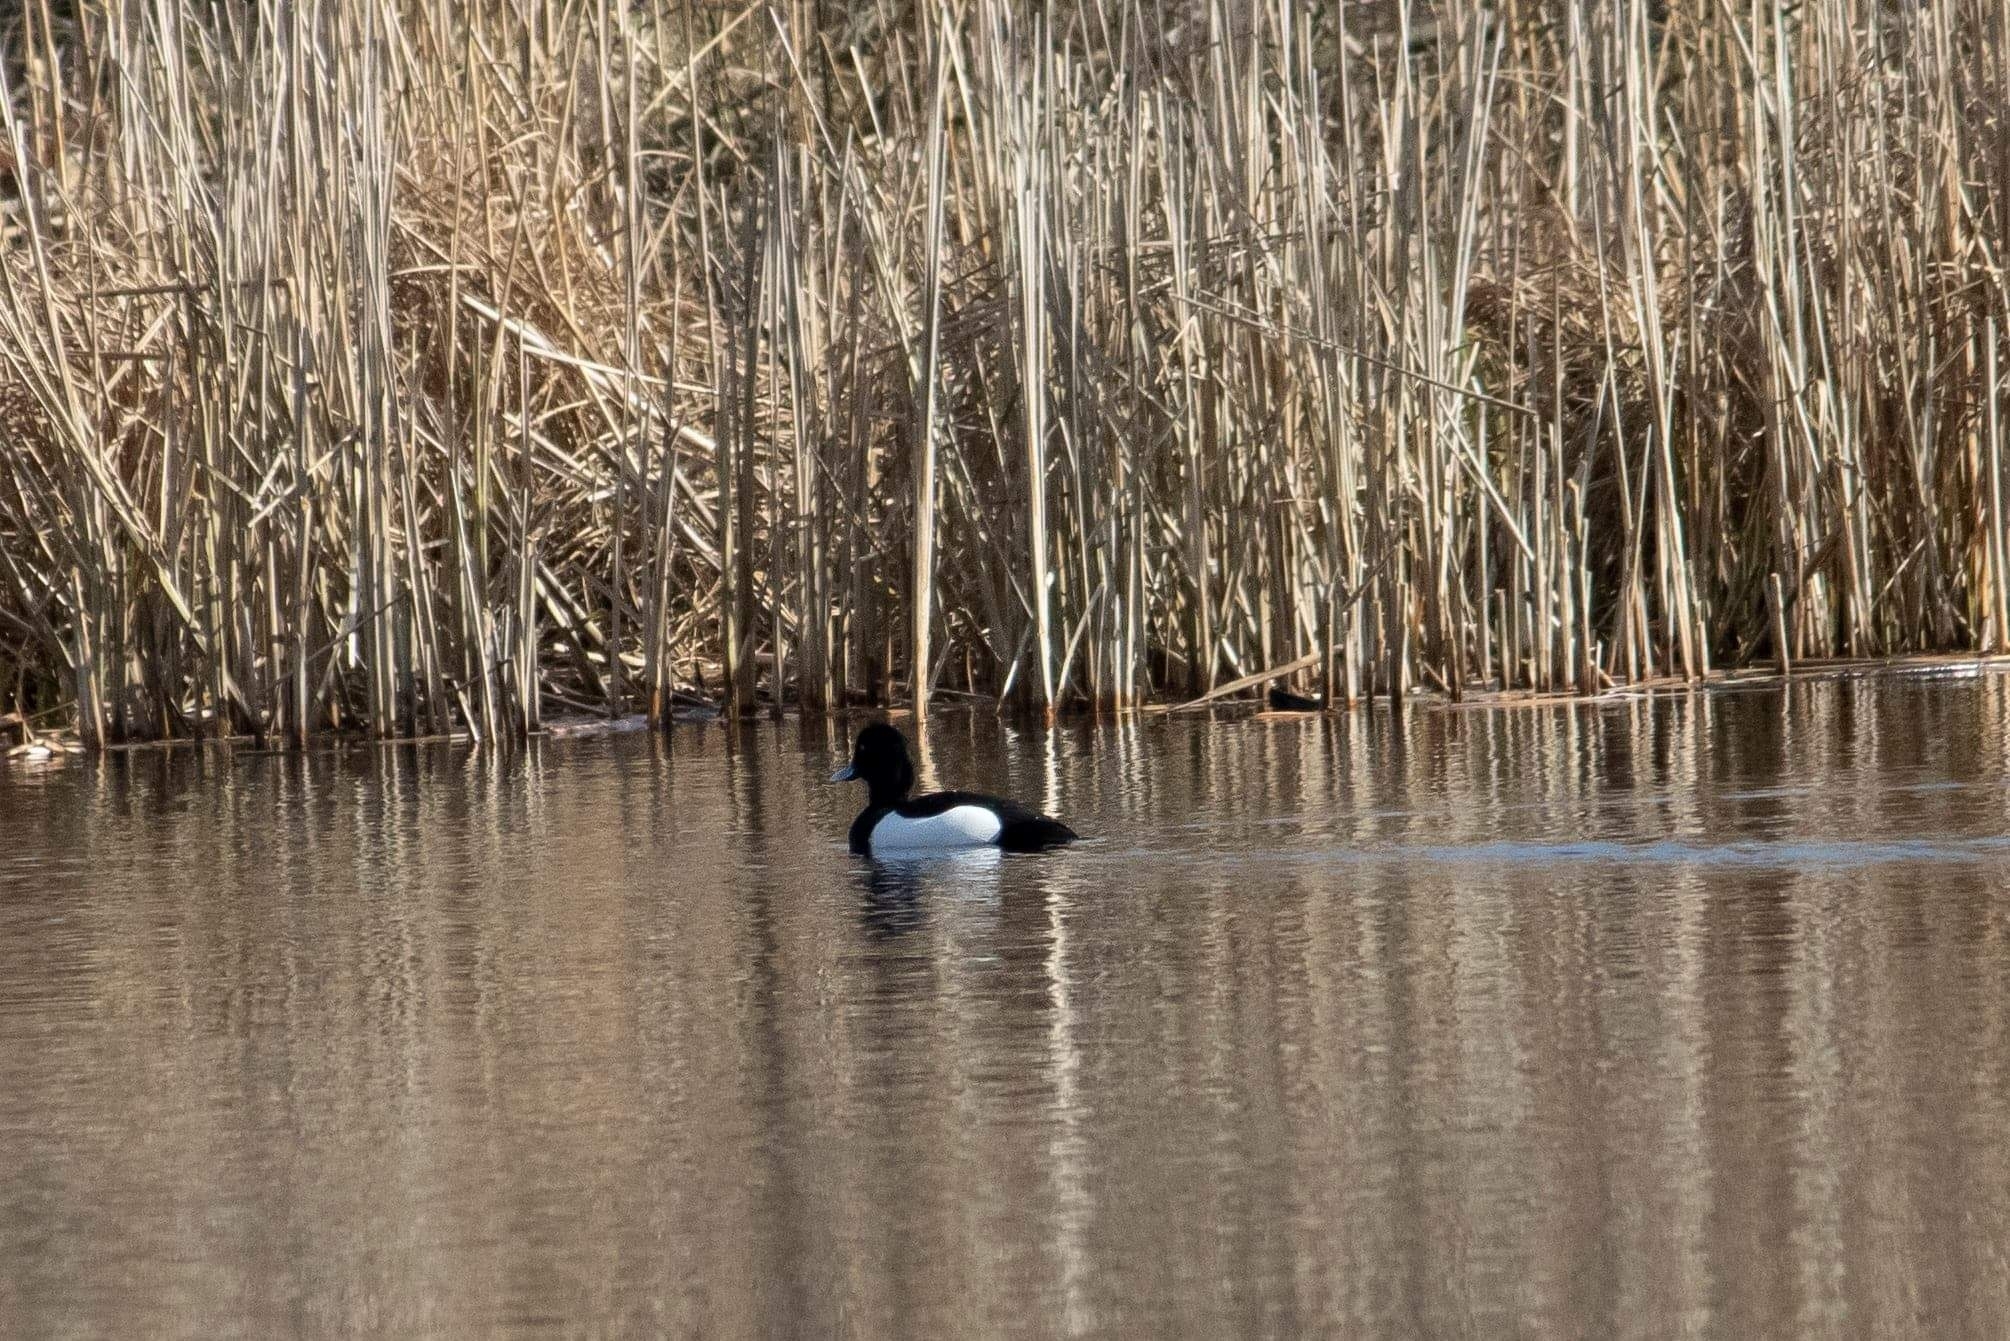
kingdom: Animalia
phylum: Chordata
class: Aves
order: Anseriformes
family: Anatidae
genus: Aythya
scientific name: Aythya fuligula
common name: Tufted duck
